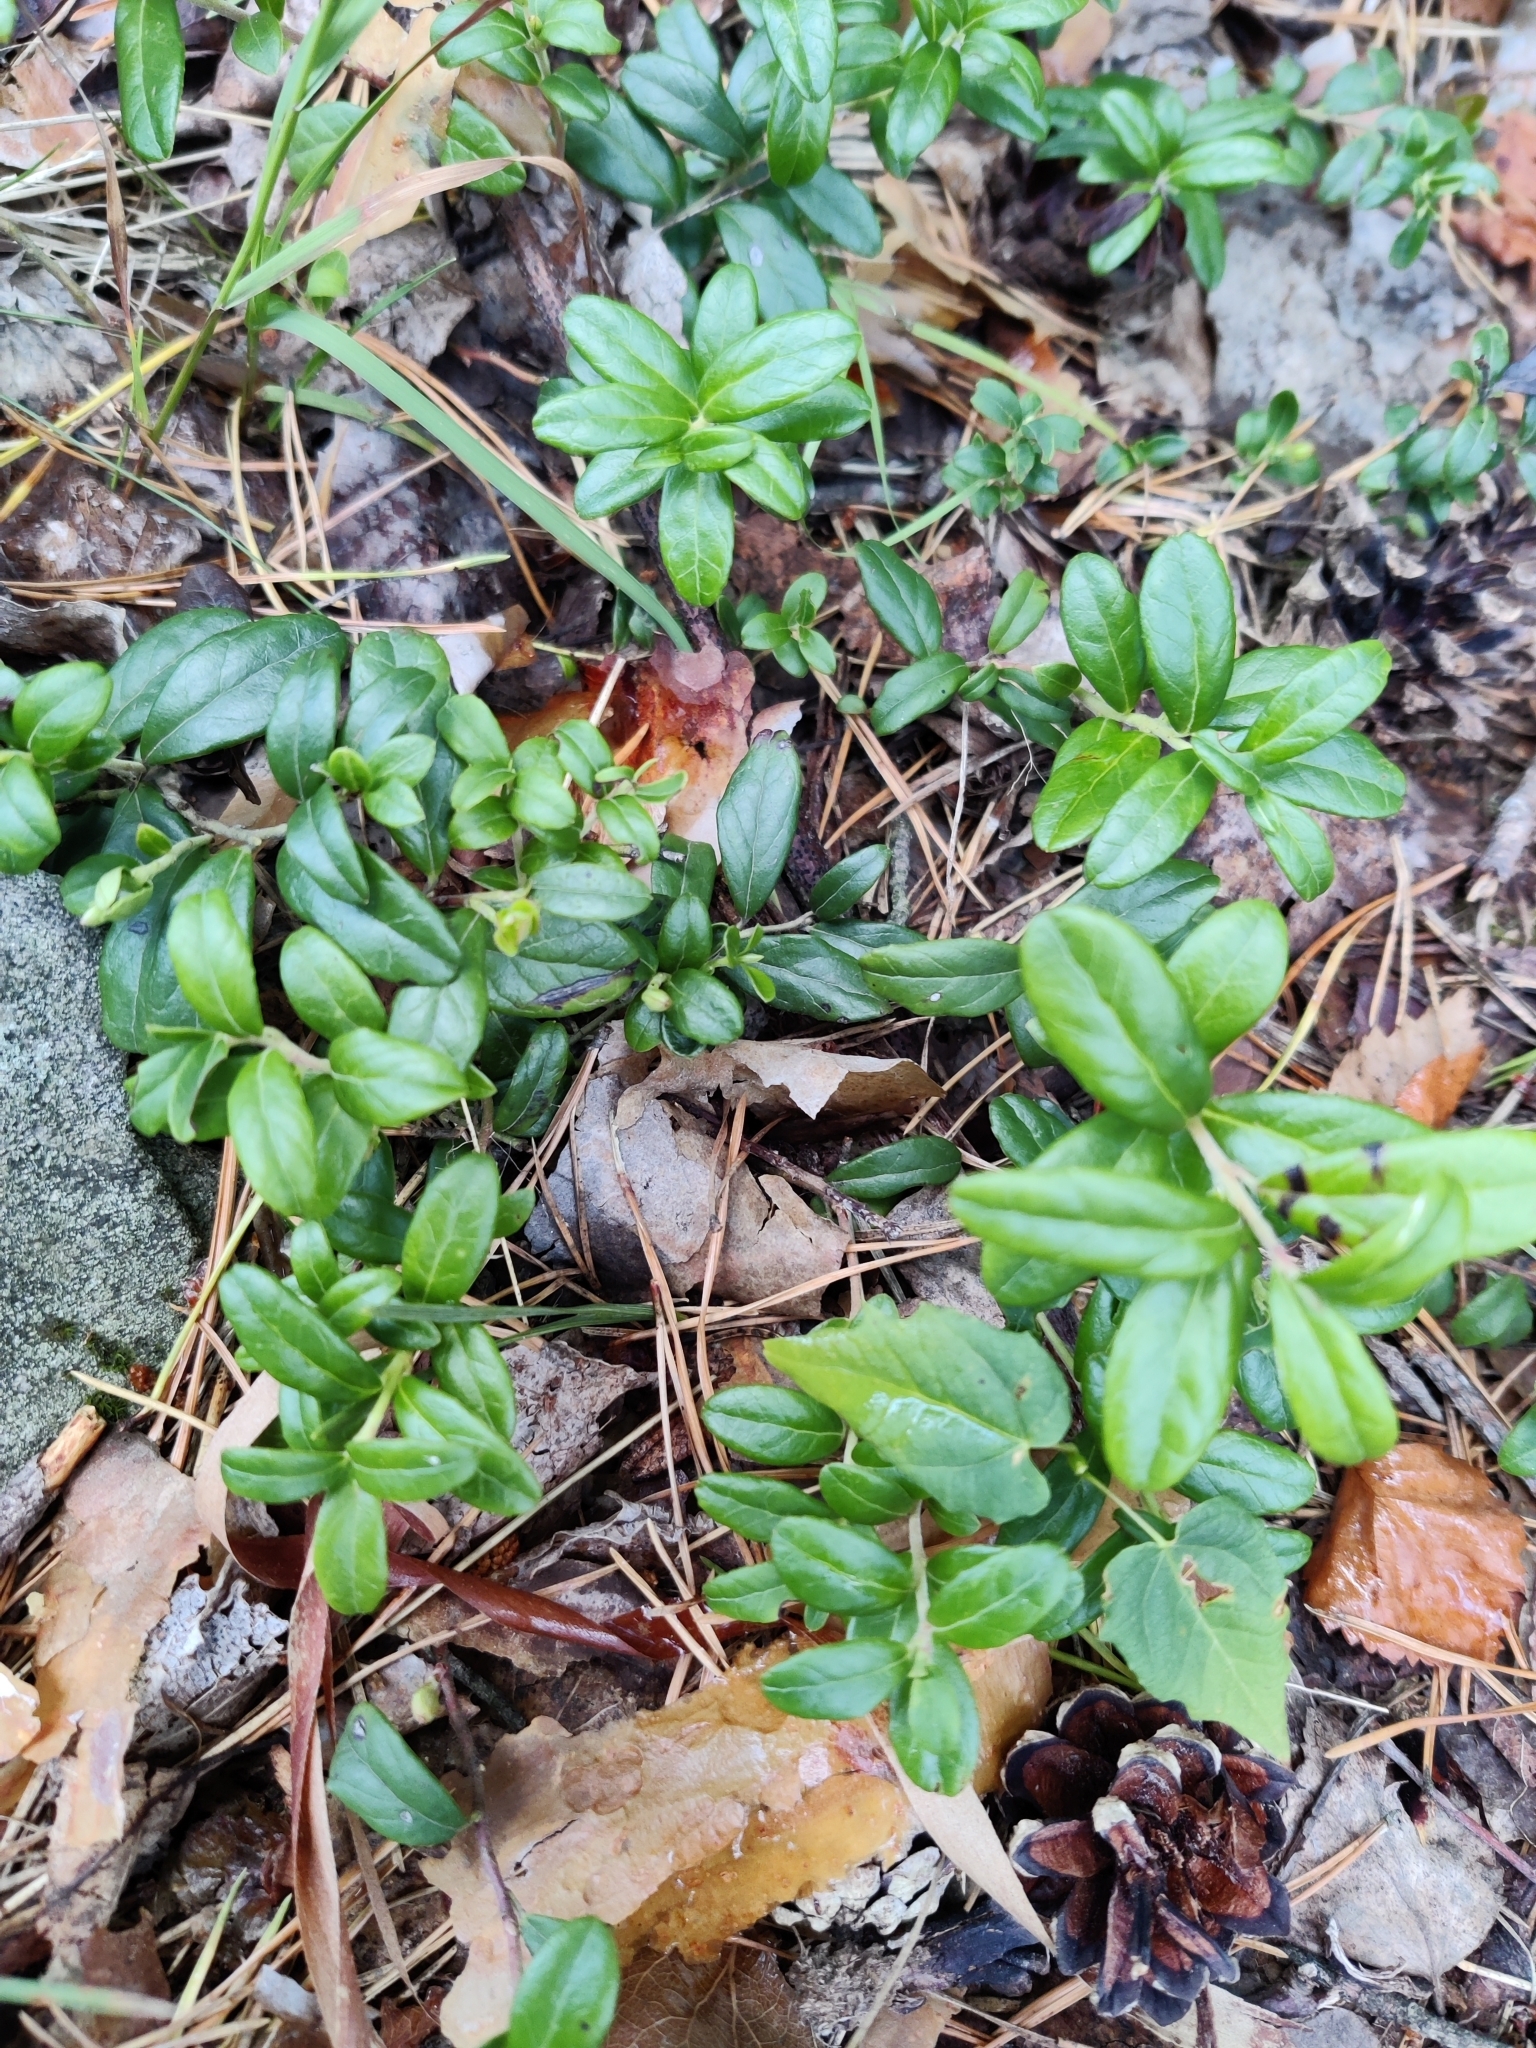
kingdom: Plantae
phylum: Tracheophyta
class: Magnoliopsida
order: Ericales
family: Ericaceae
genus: Vaccinium
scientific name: Vaccinium vitis-idaea
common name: Cowberry
